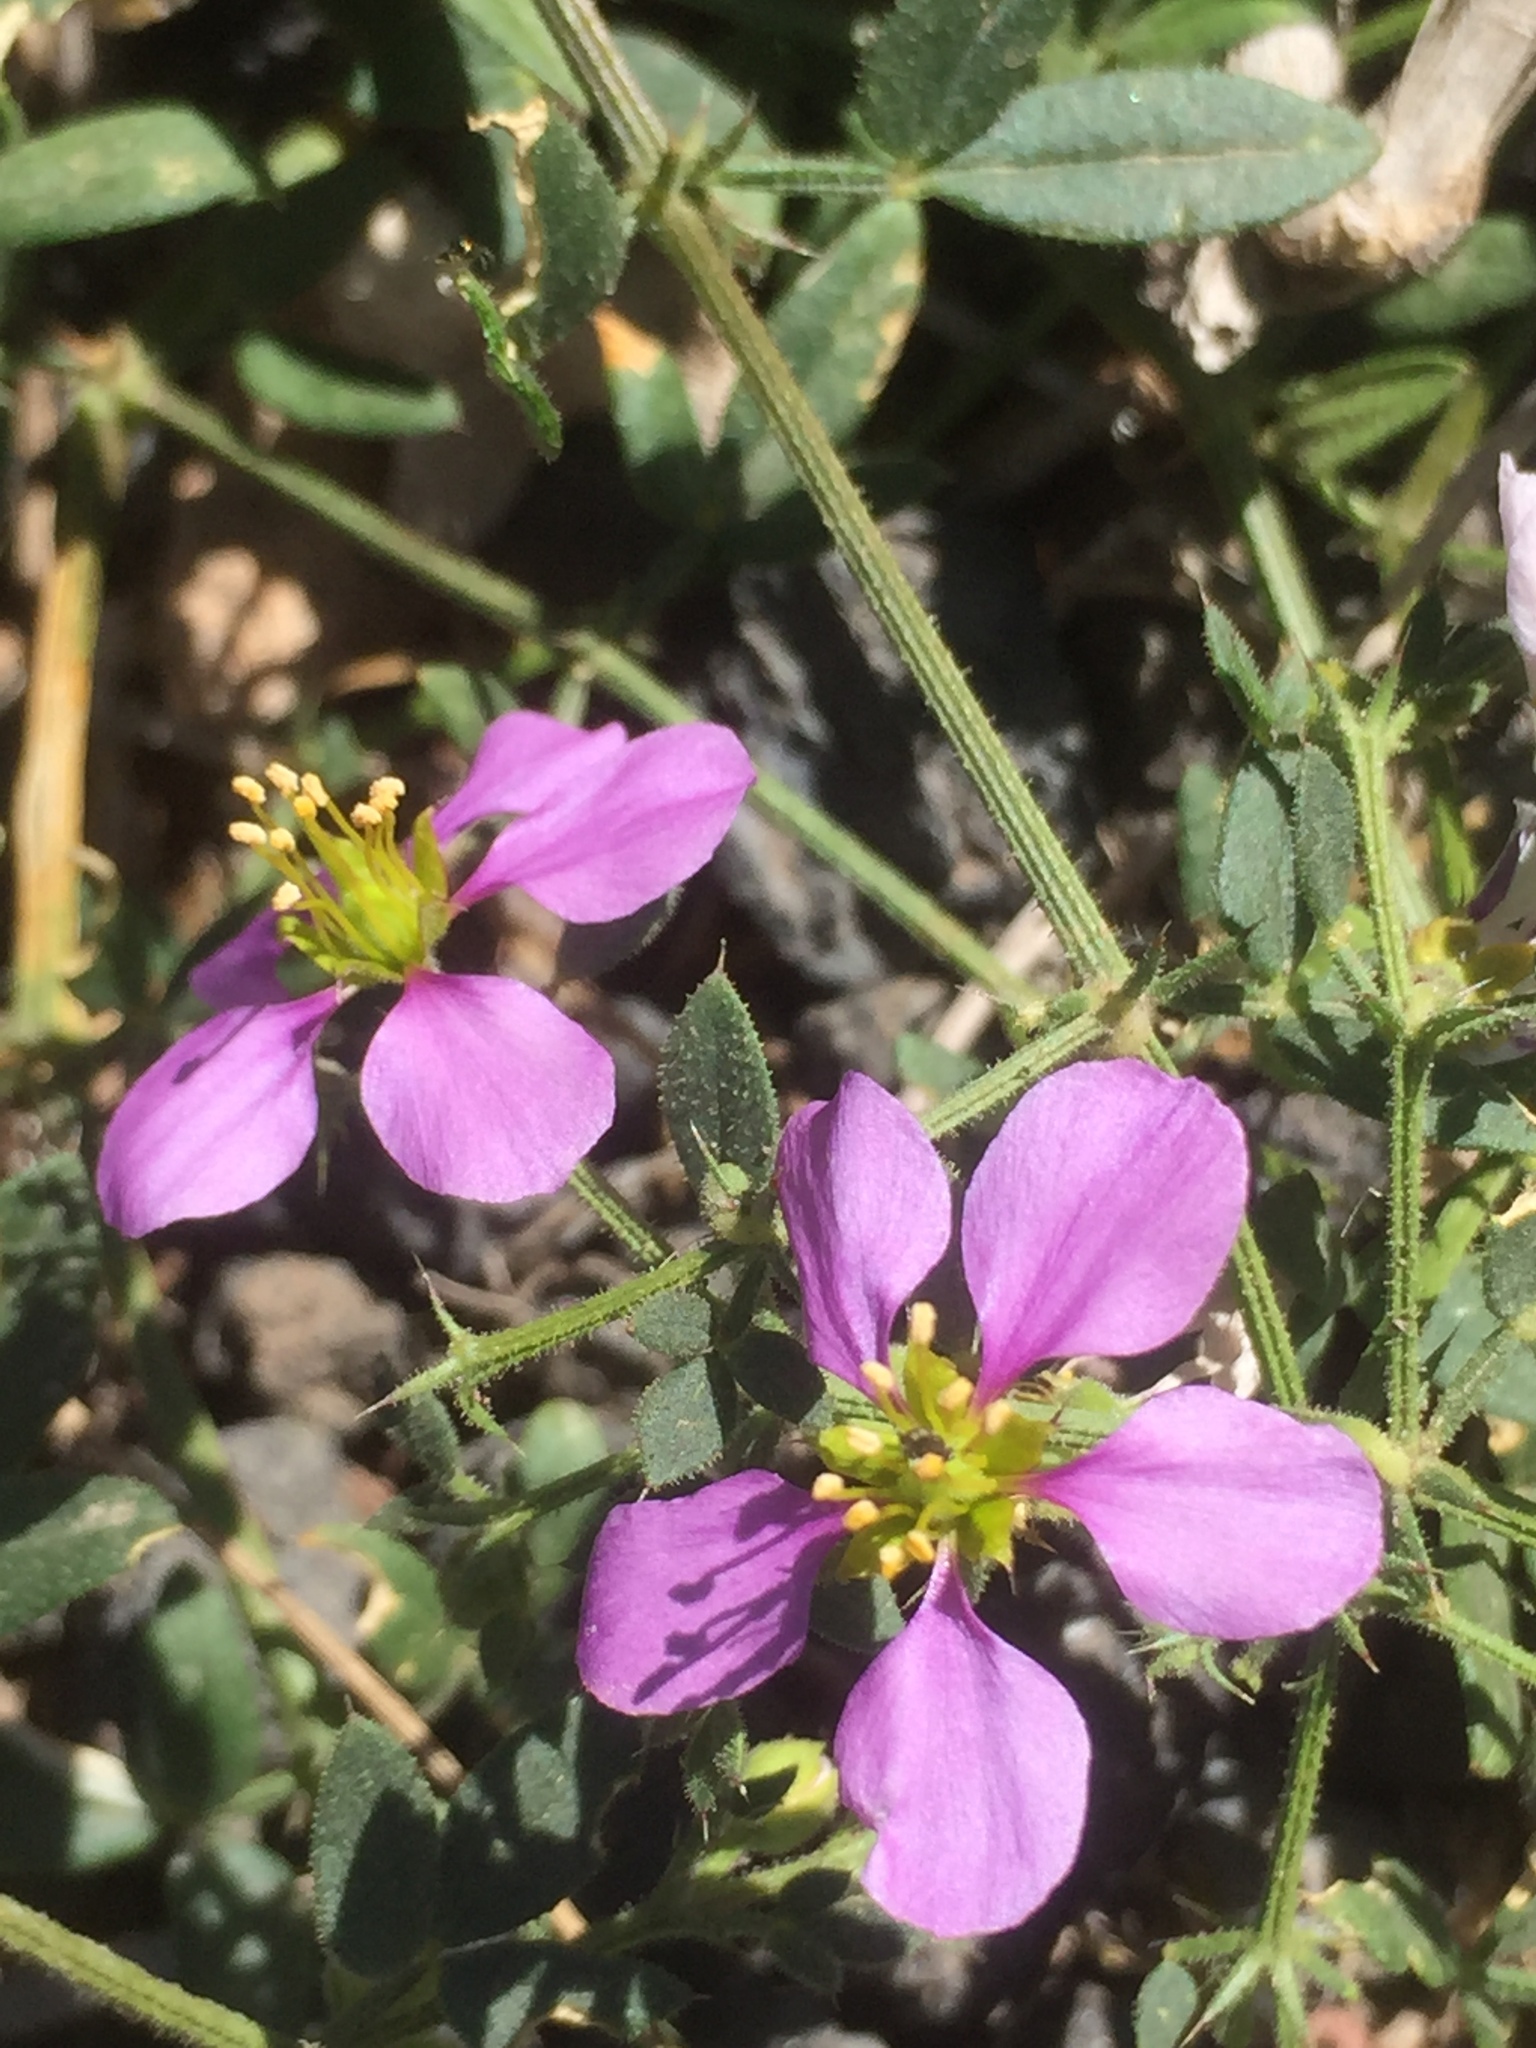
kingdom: Plantae
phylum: Tracheophyta
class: Magnoliopsida
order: Zygophyllales
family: Zygophyllaceae
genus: Fagonia
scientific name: Fagonia cretica
